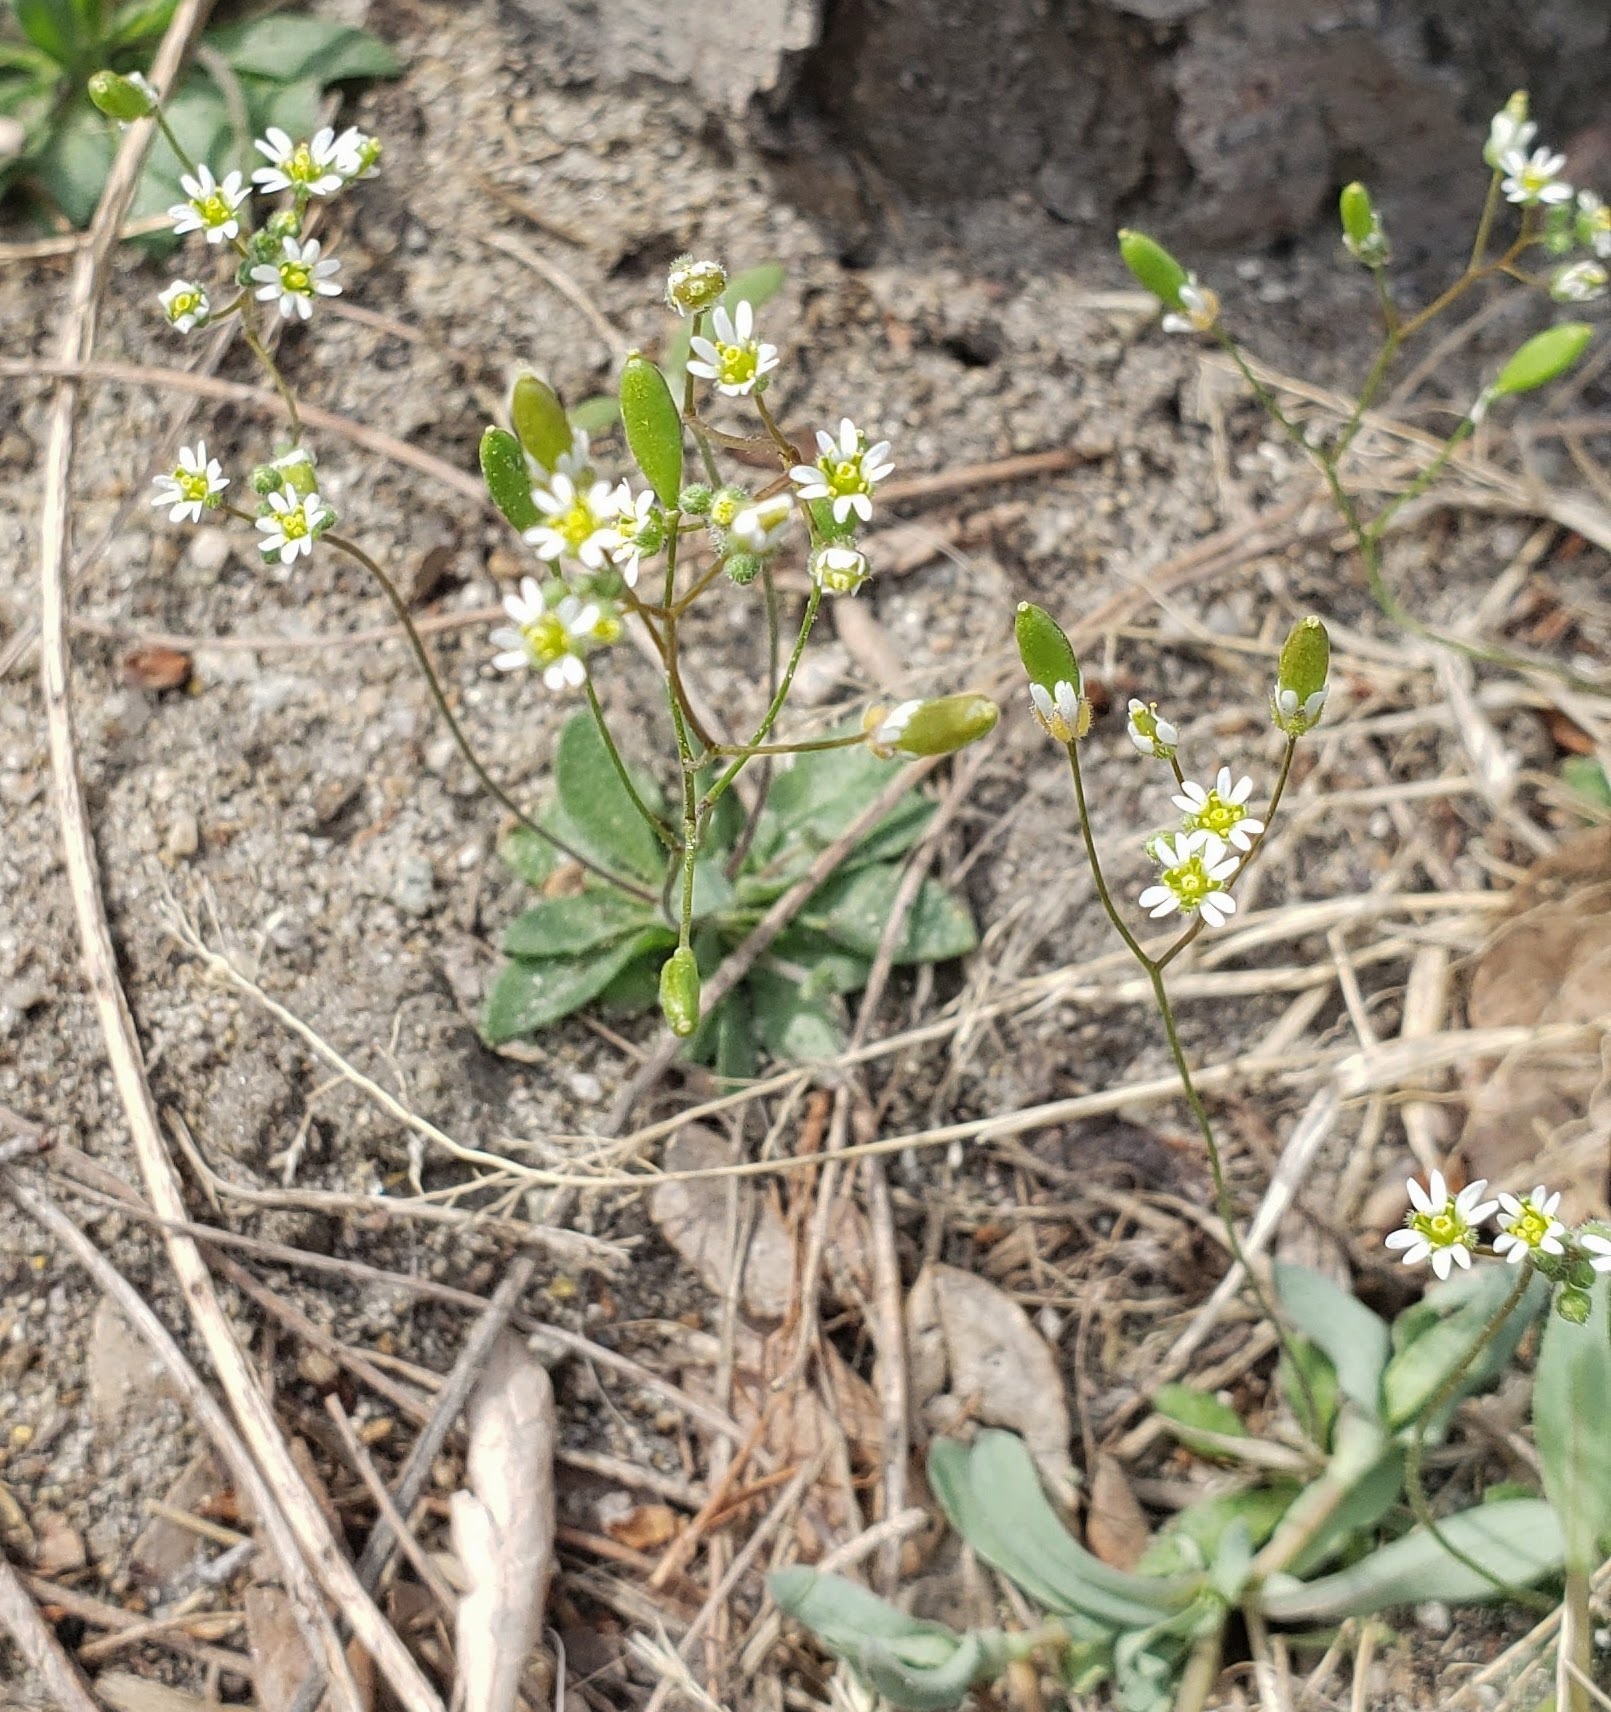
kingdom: Plantae
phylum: Tracheophyta
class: Magnoliopsida
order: Brassicales
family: Brassicaceae
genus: Draba
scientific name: Draba verna
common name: Spring draba
